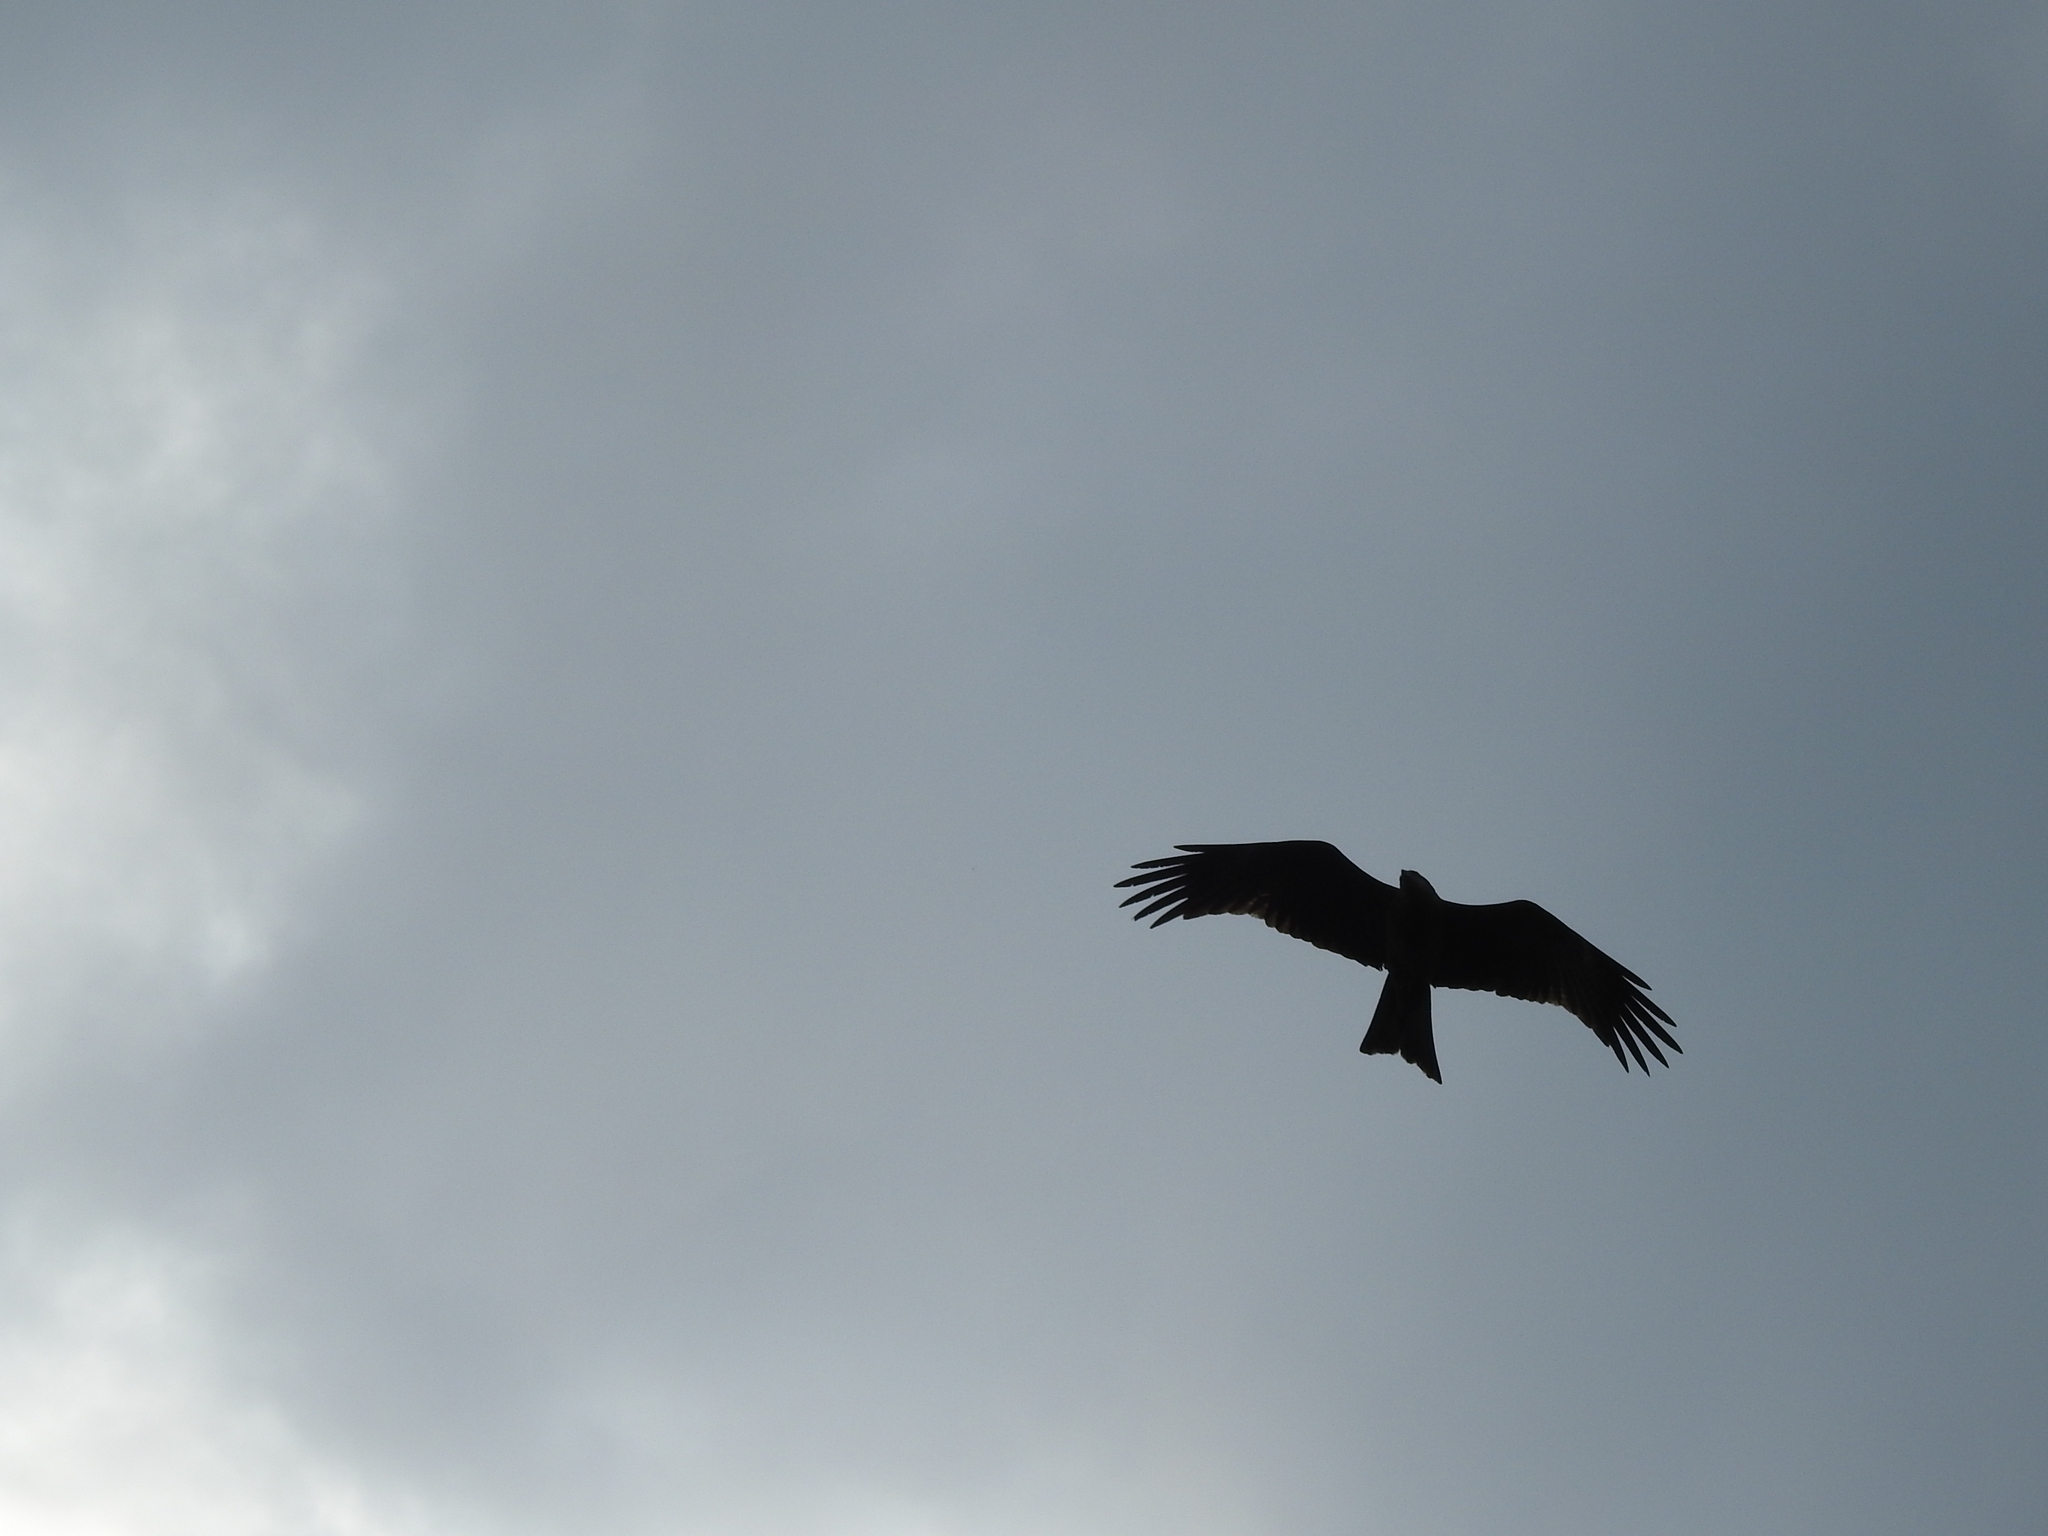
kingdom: Animalia
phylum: Chordata
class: Aves
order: Accipitriformes
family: Accipitridae
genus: Milvus
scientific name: Milvus migrans
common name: Black kite
